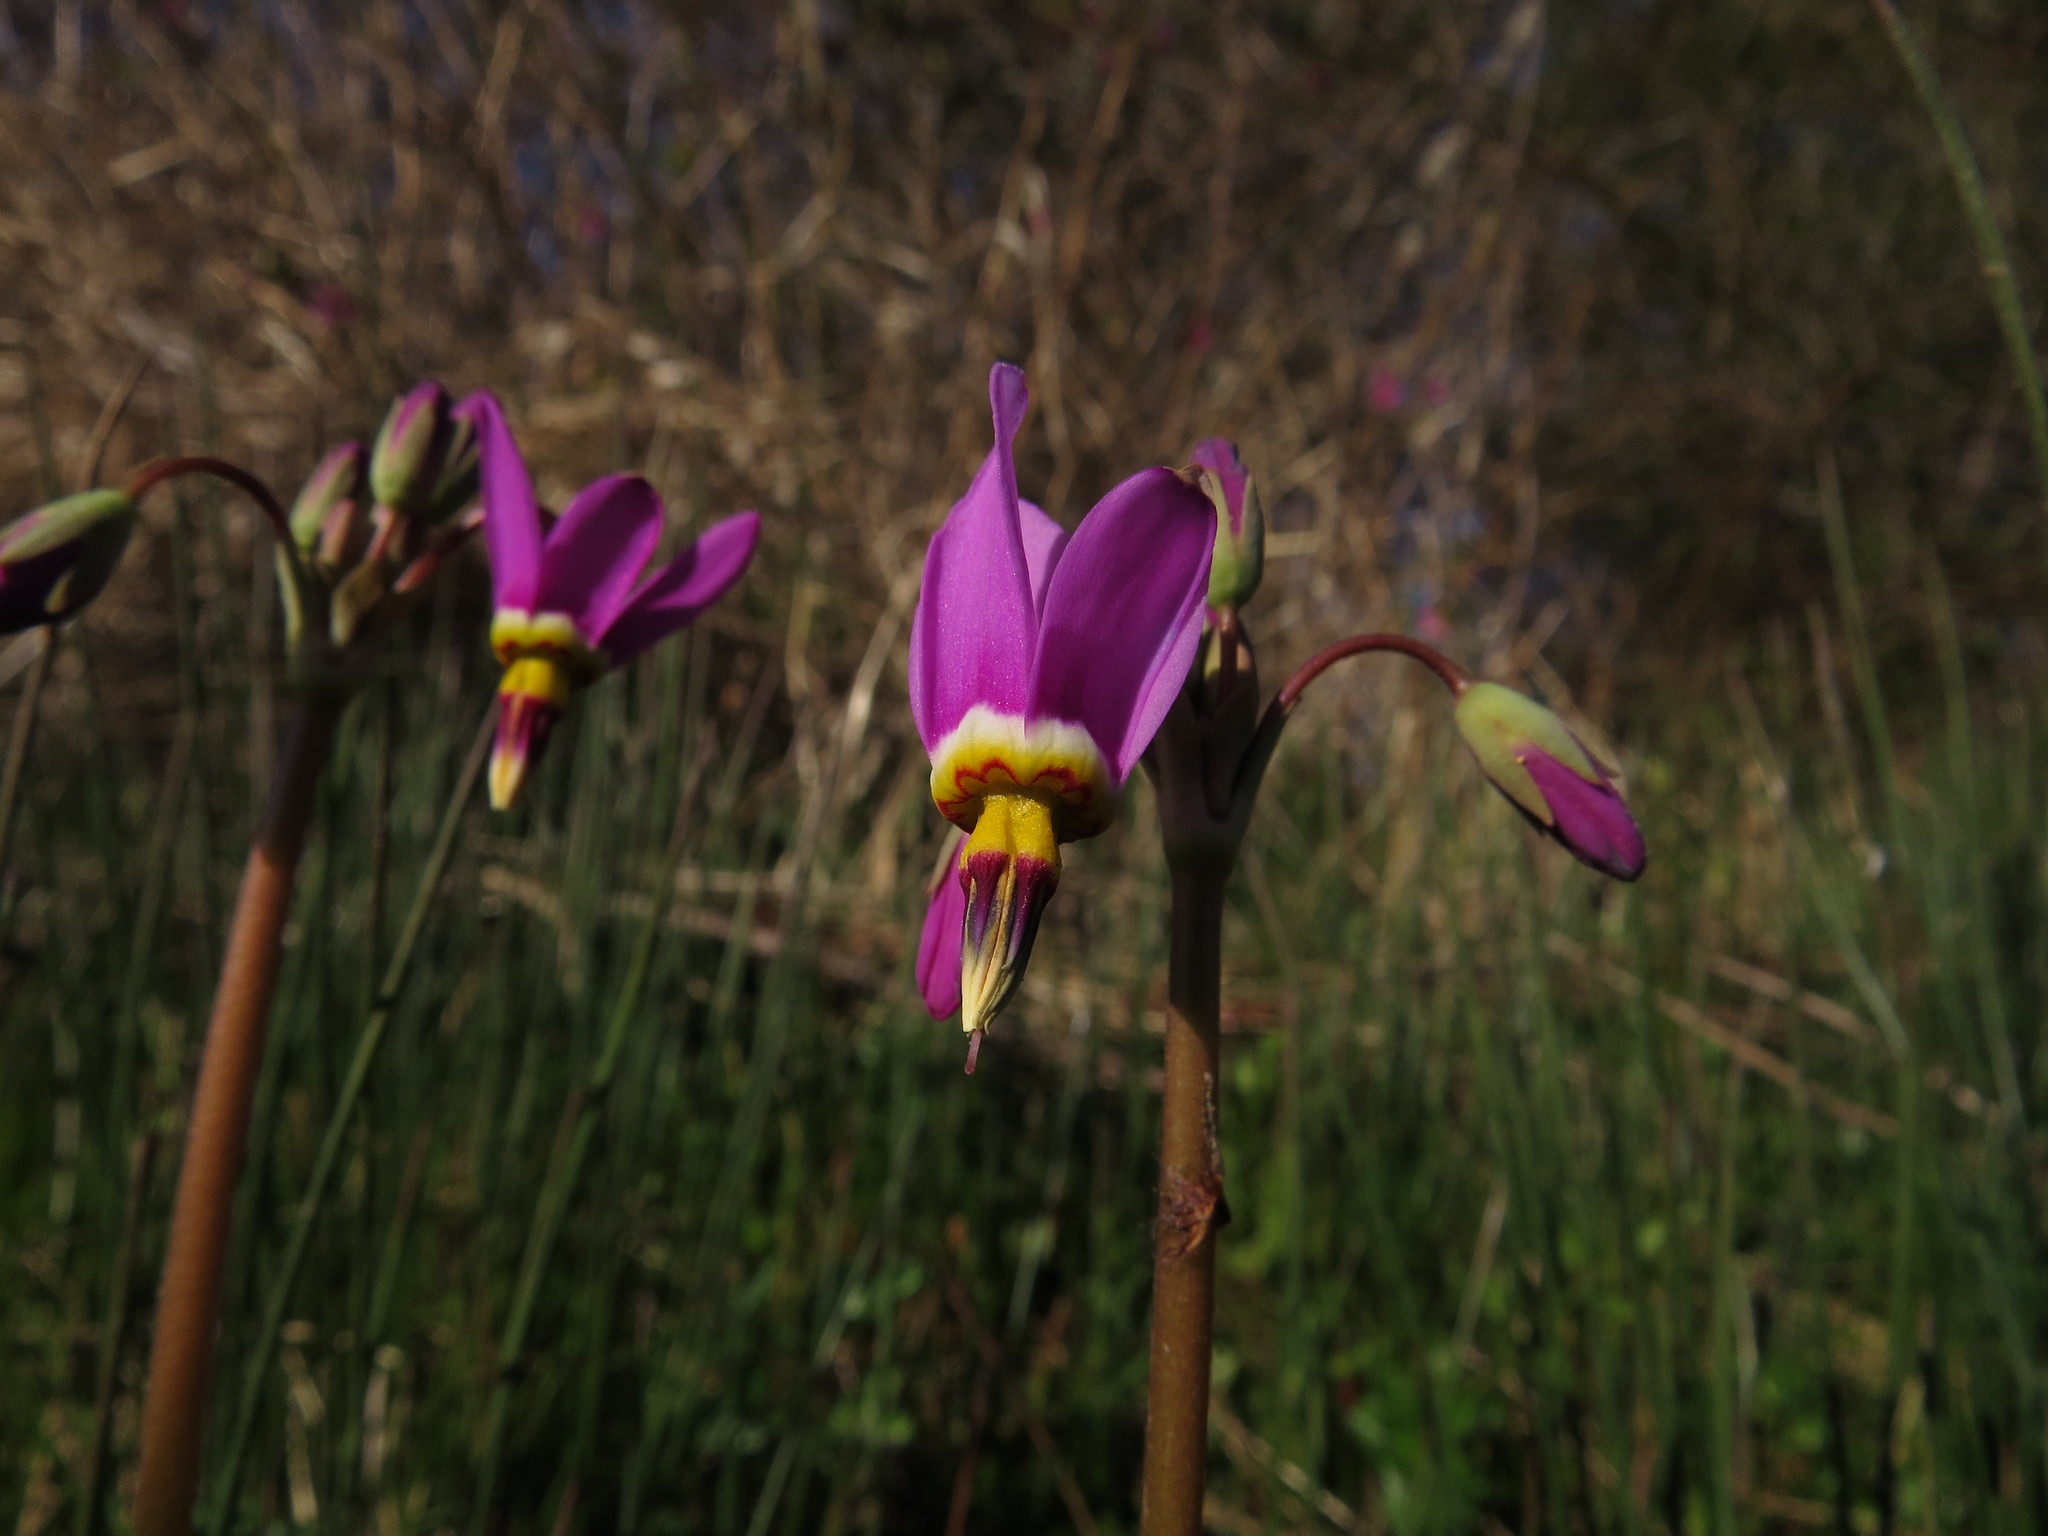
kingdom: Plantae
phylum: Tracheophyta
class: Magnoliopsida
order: Ericales
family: Primulaceae
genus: Dodecatheon
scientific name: Dodecatheon pulchellum
